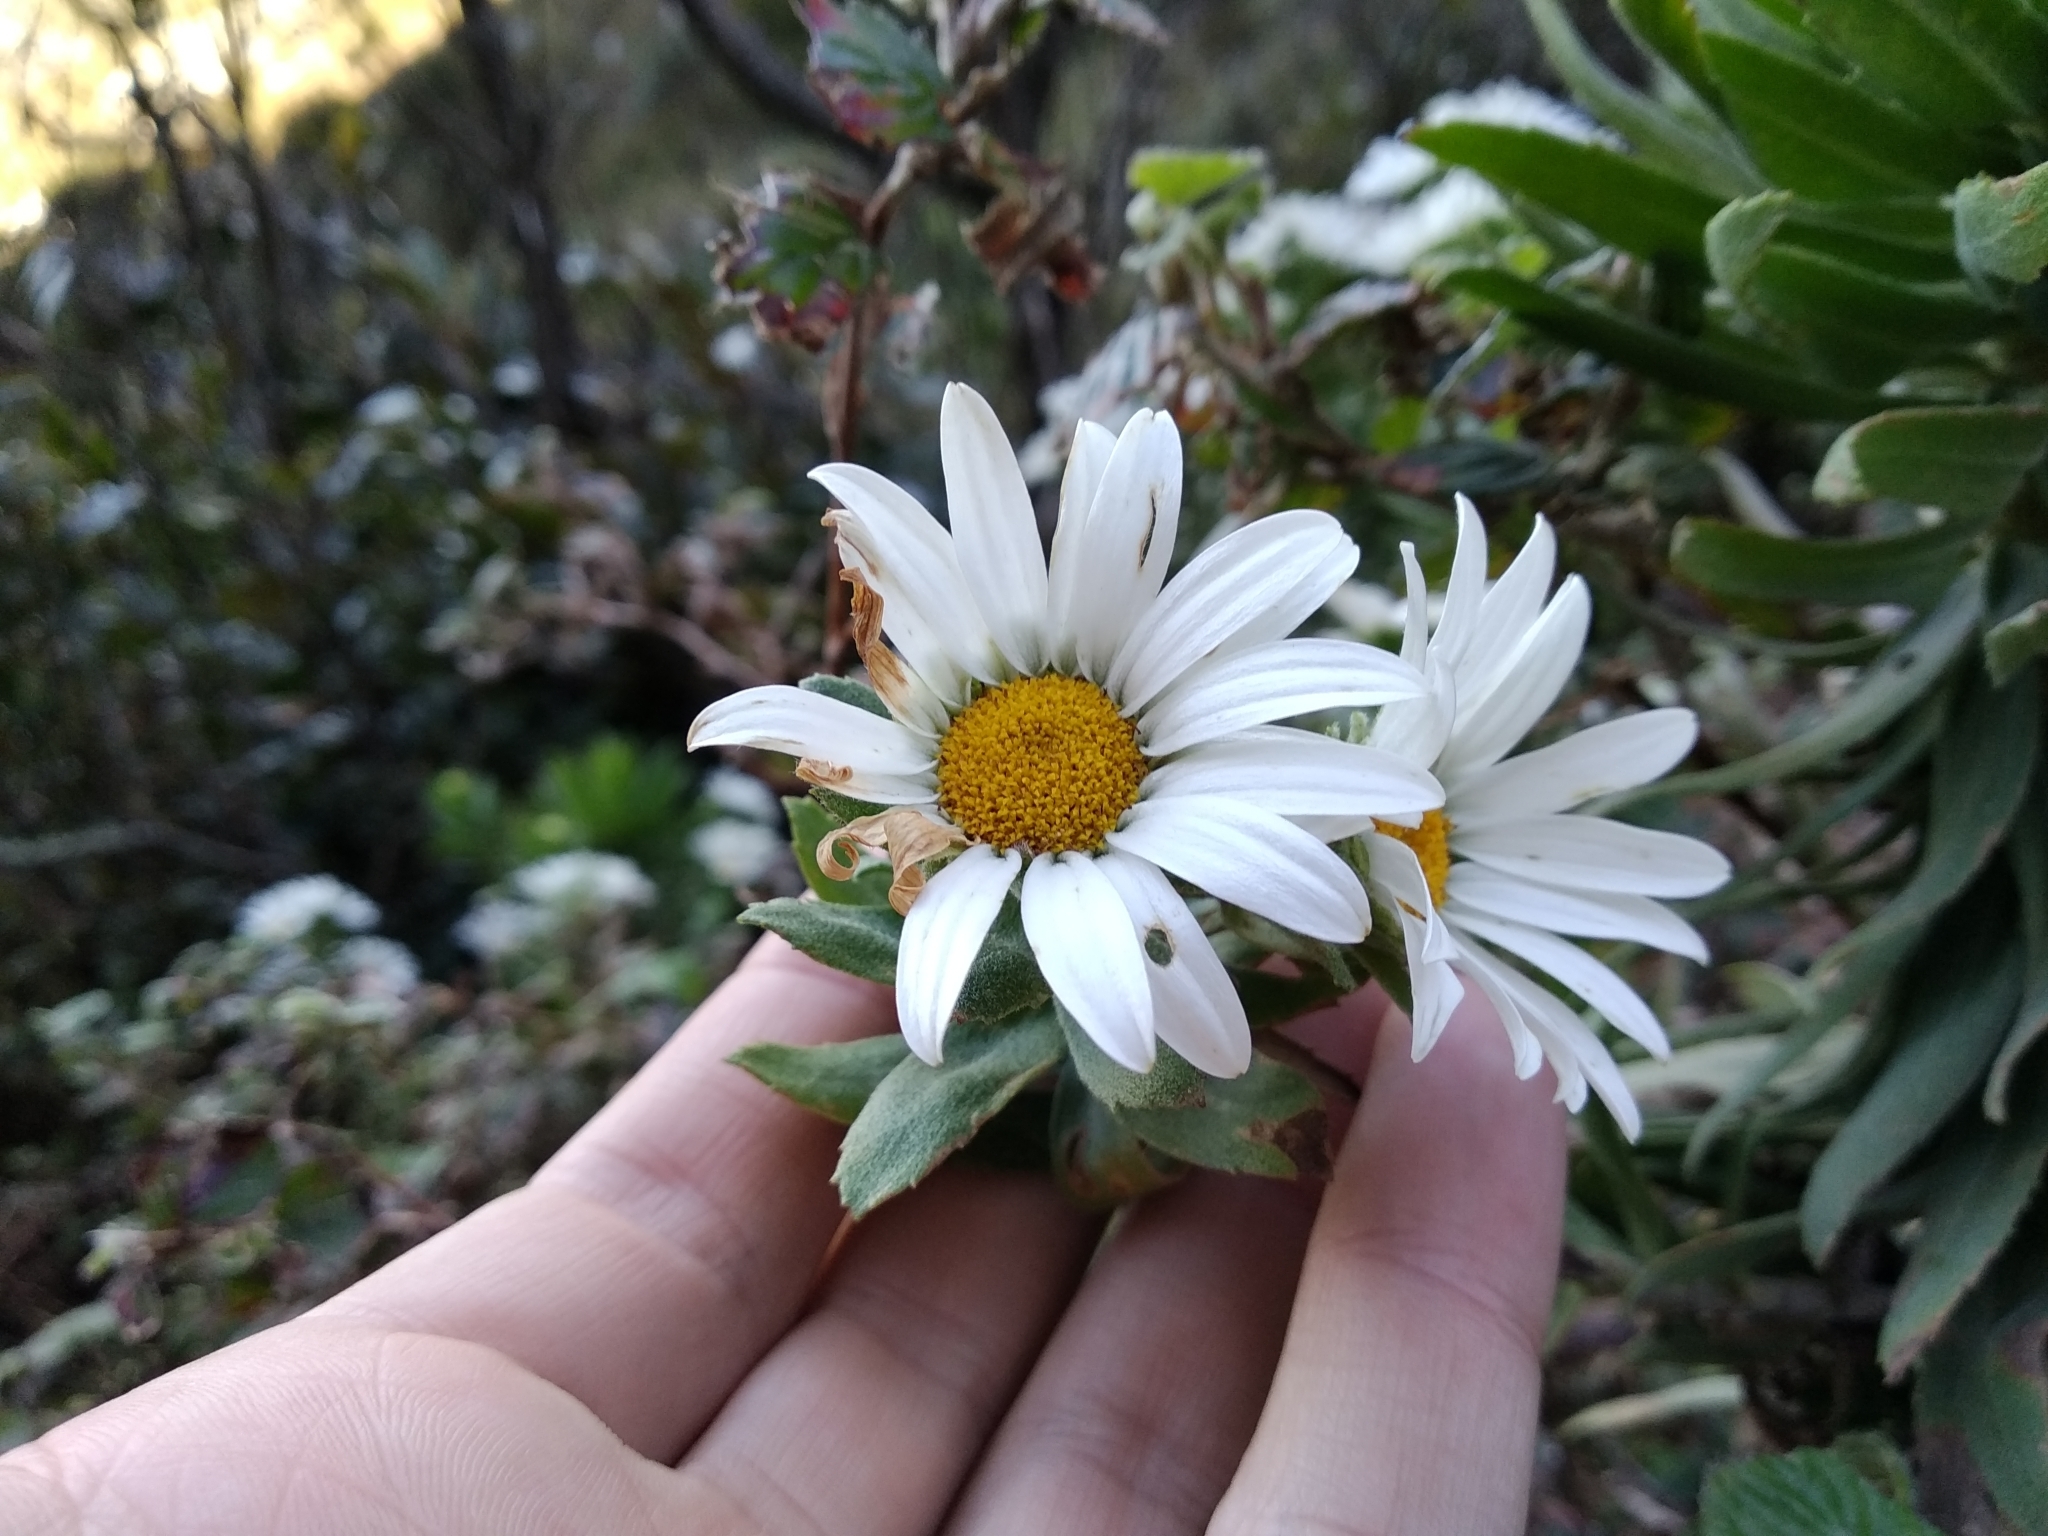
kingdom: Plantae
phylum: Tracheophyta
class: Magnoliopsida
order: Asterales
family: Asteraceae
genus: Osmitopsis
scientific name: Osmitopsis asteriscoides
